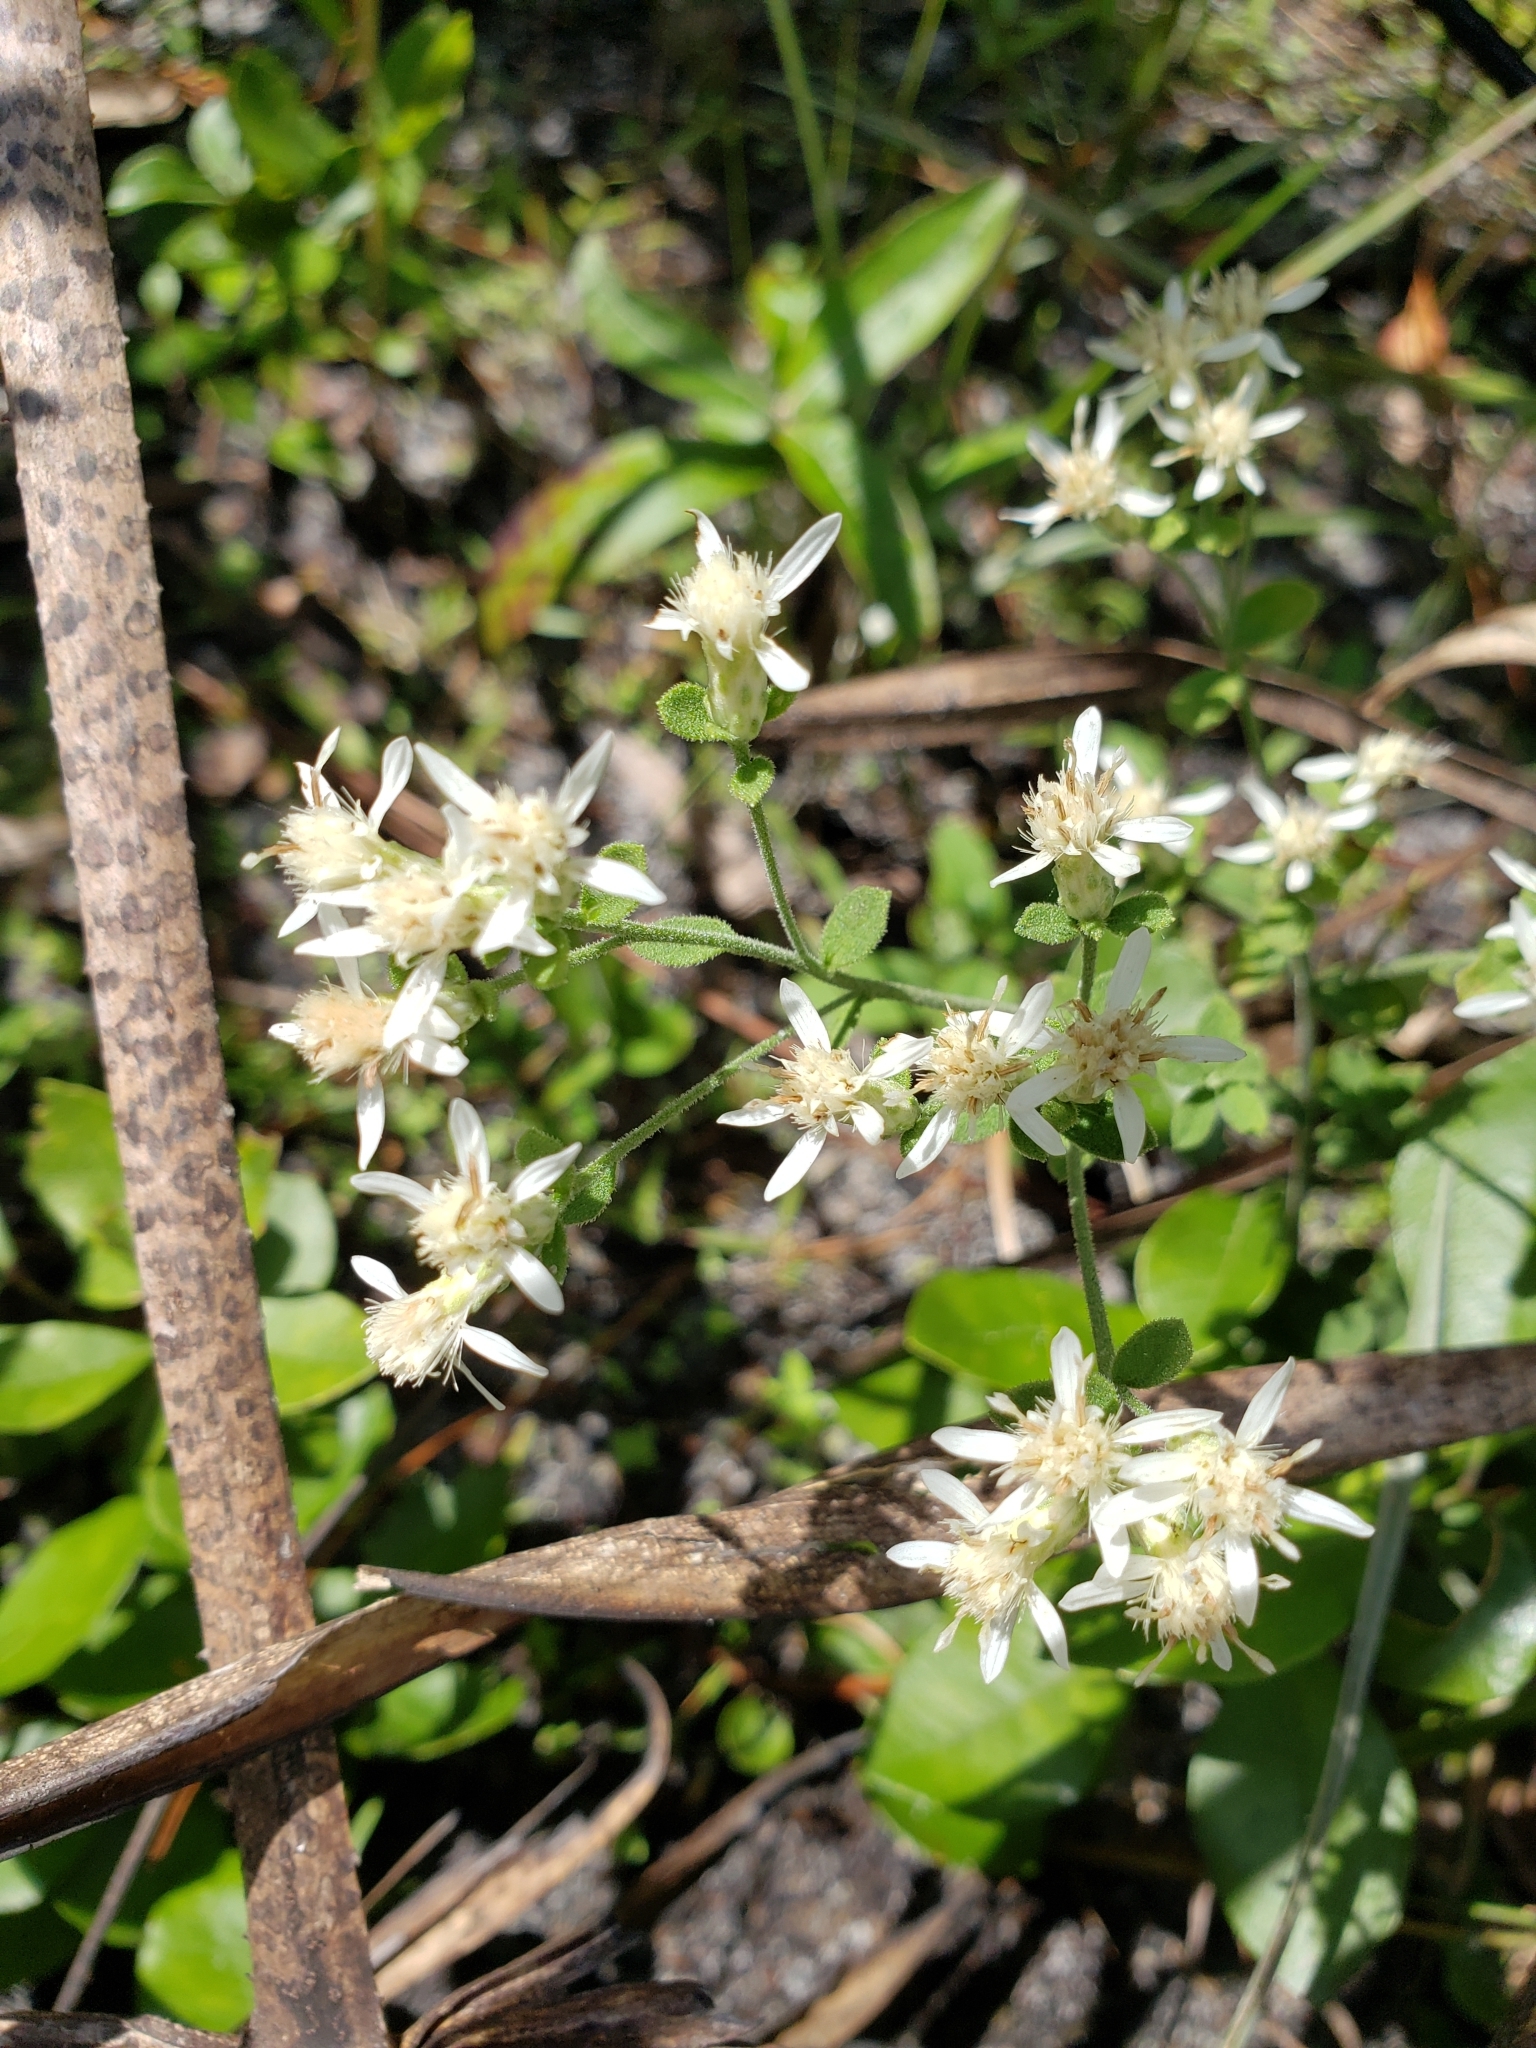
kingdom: Plantae
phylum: Tracheophyta
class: Magnoliopsida
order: Asterales
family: Asteraceae
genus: Sericocarpus
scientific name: Sericocarpus tortifolius
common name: Dixie aster
